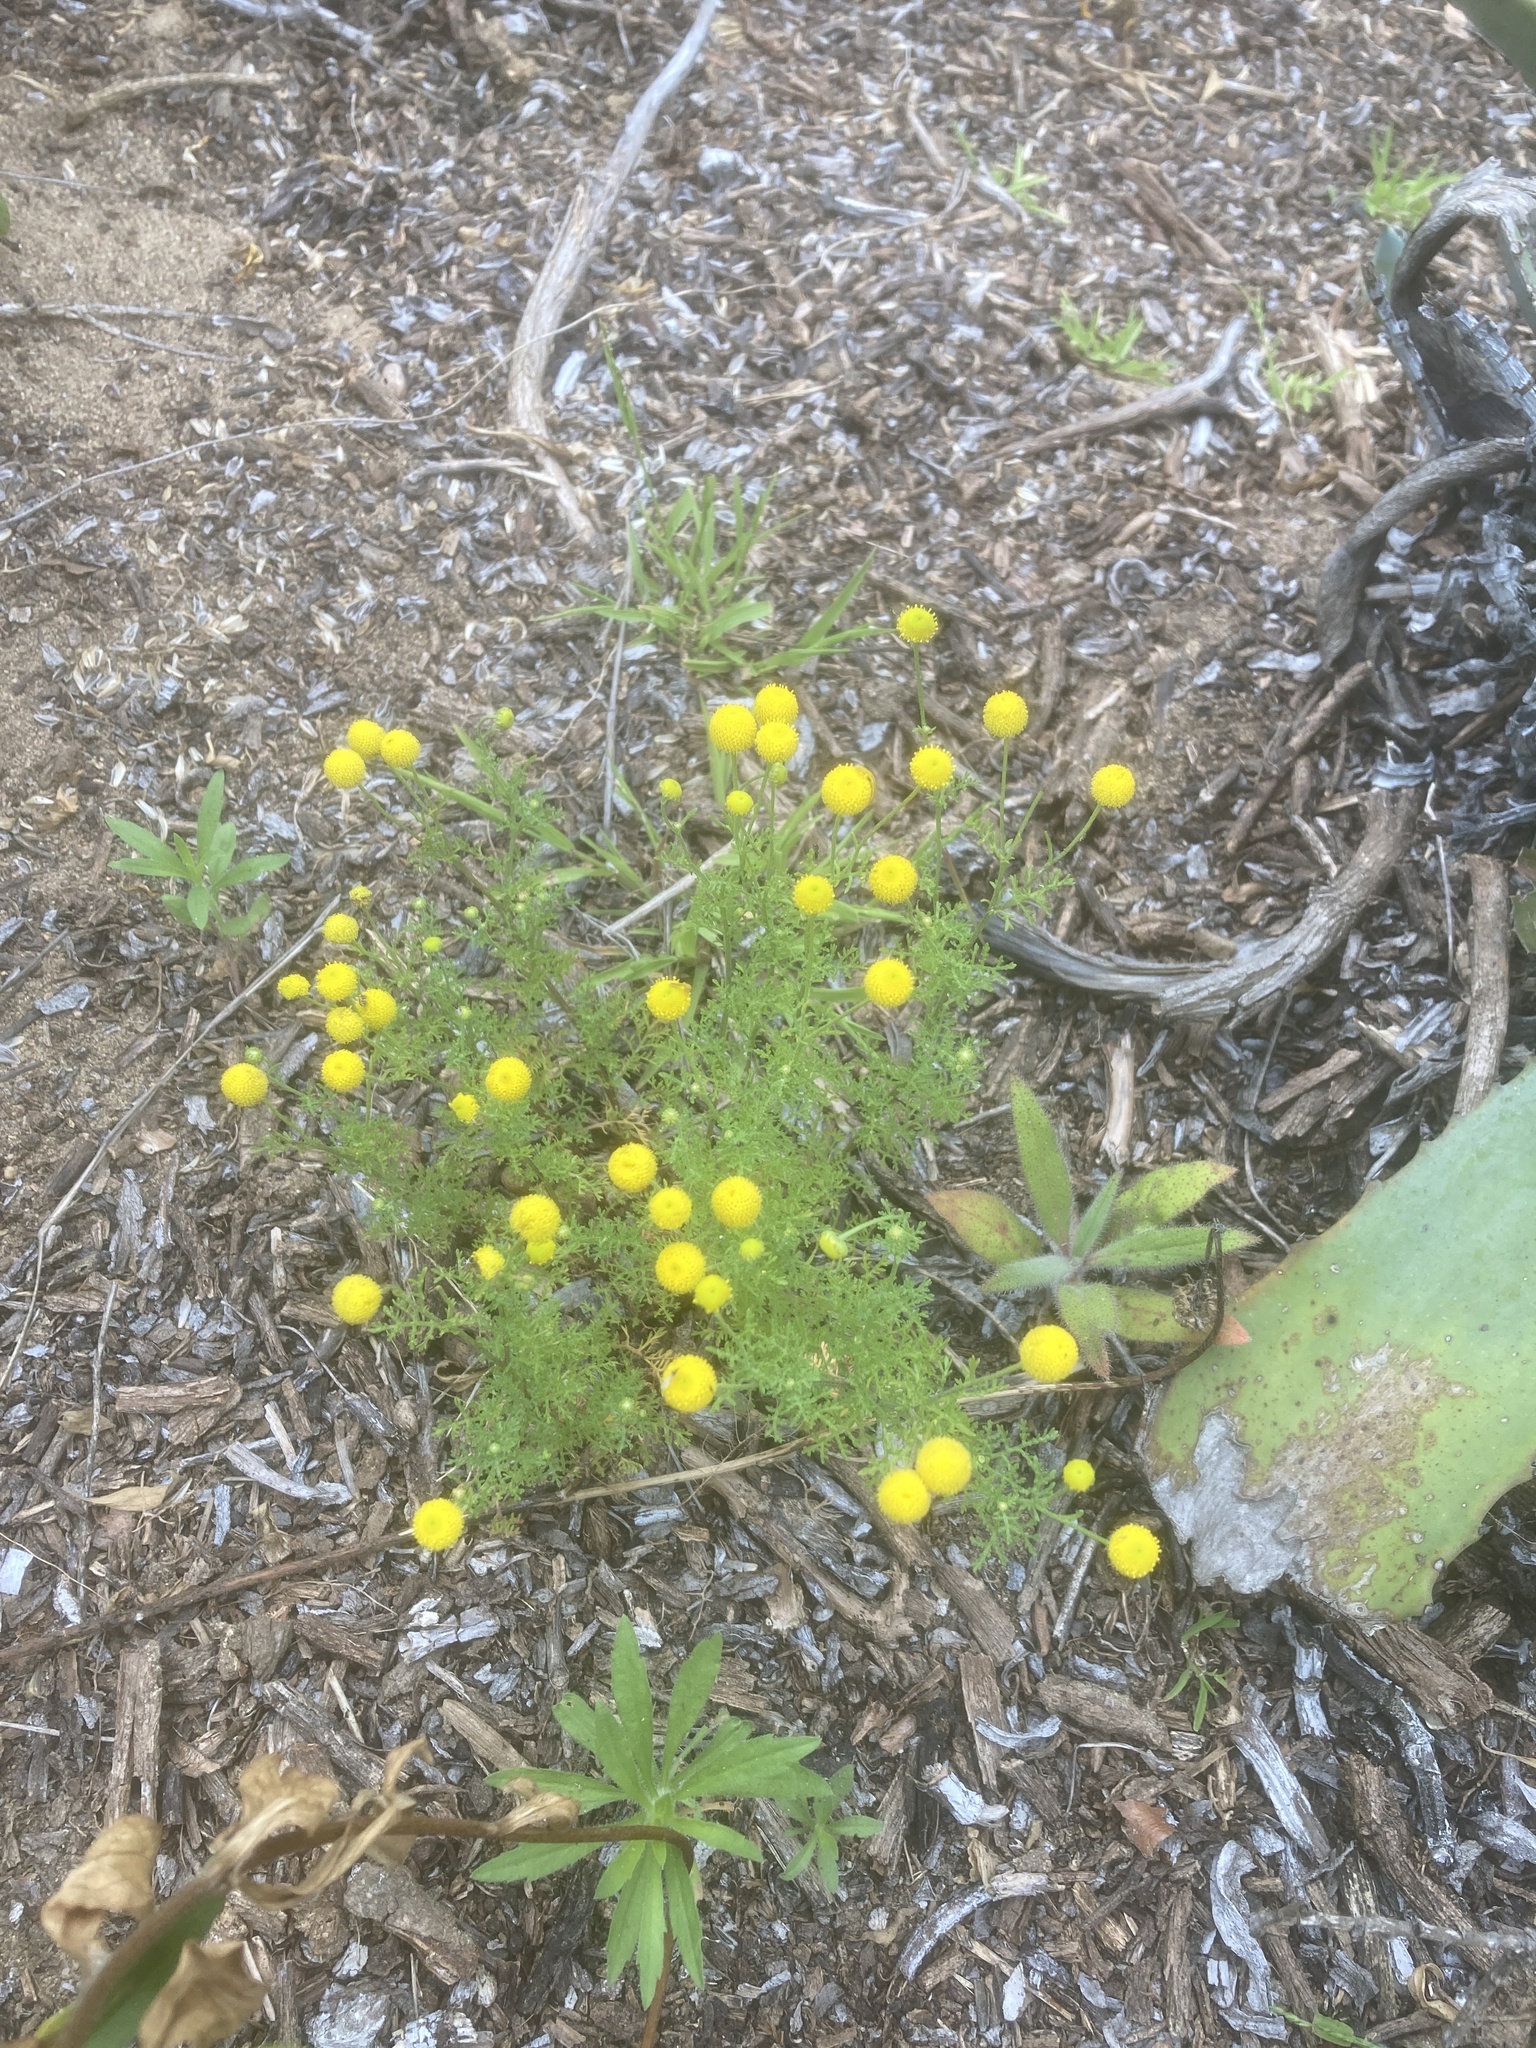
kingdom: Plantae
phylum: Tracheophyta
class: Magnoliopsida
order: Asterales
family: Asteraceae
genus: Oncosiphon
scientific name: Oncosiphon pilulifer
